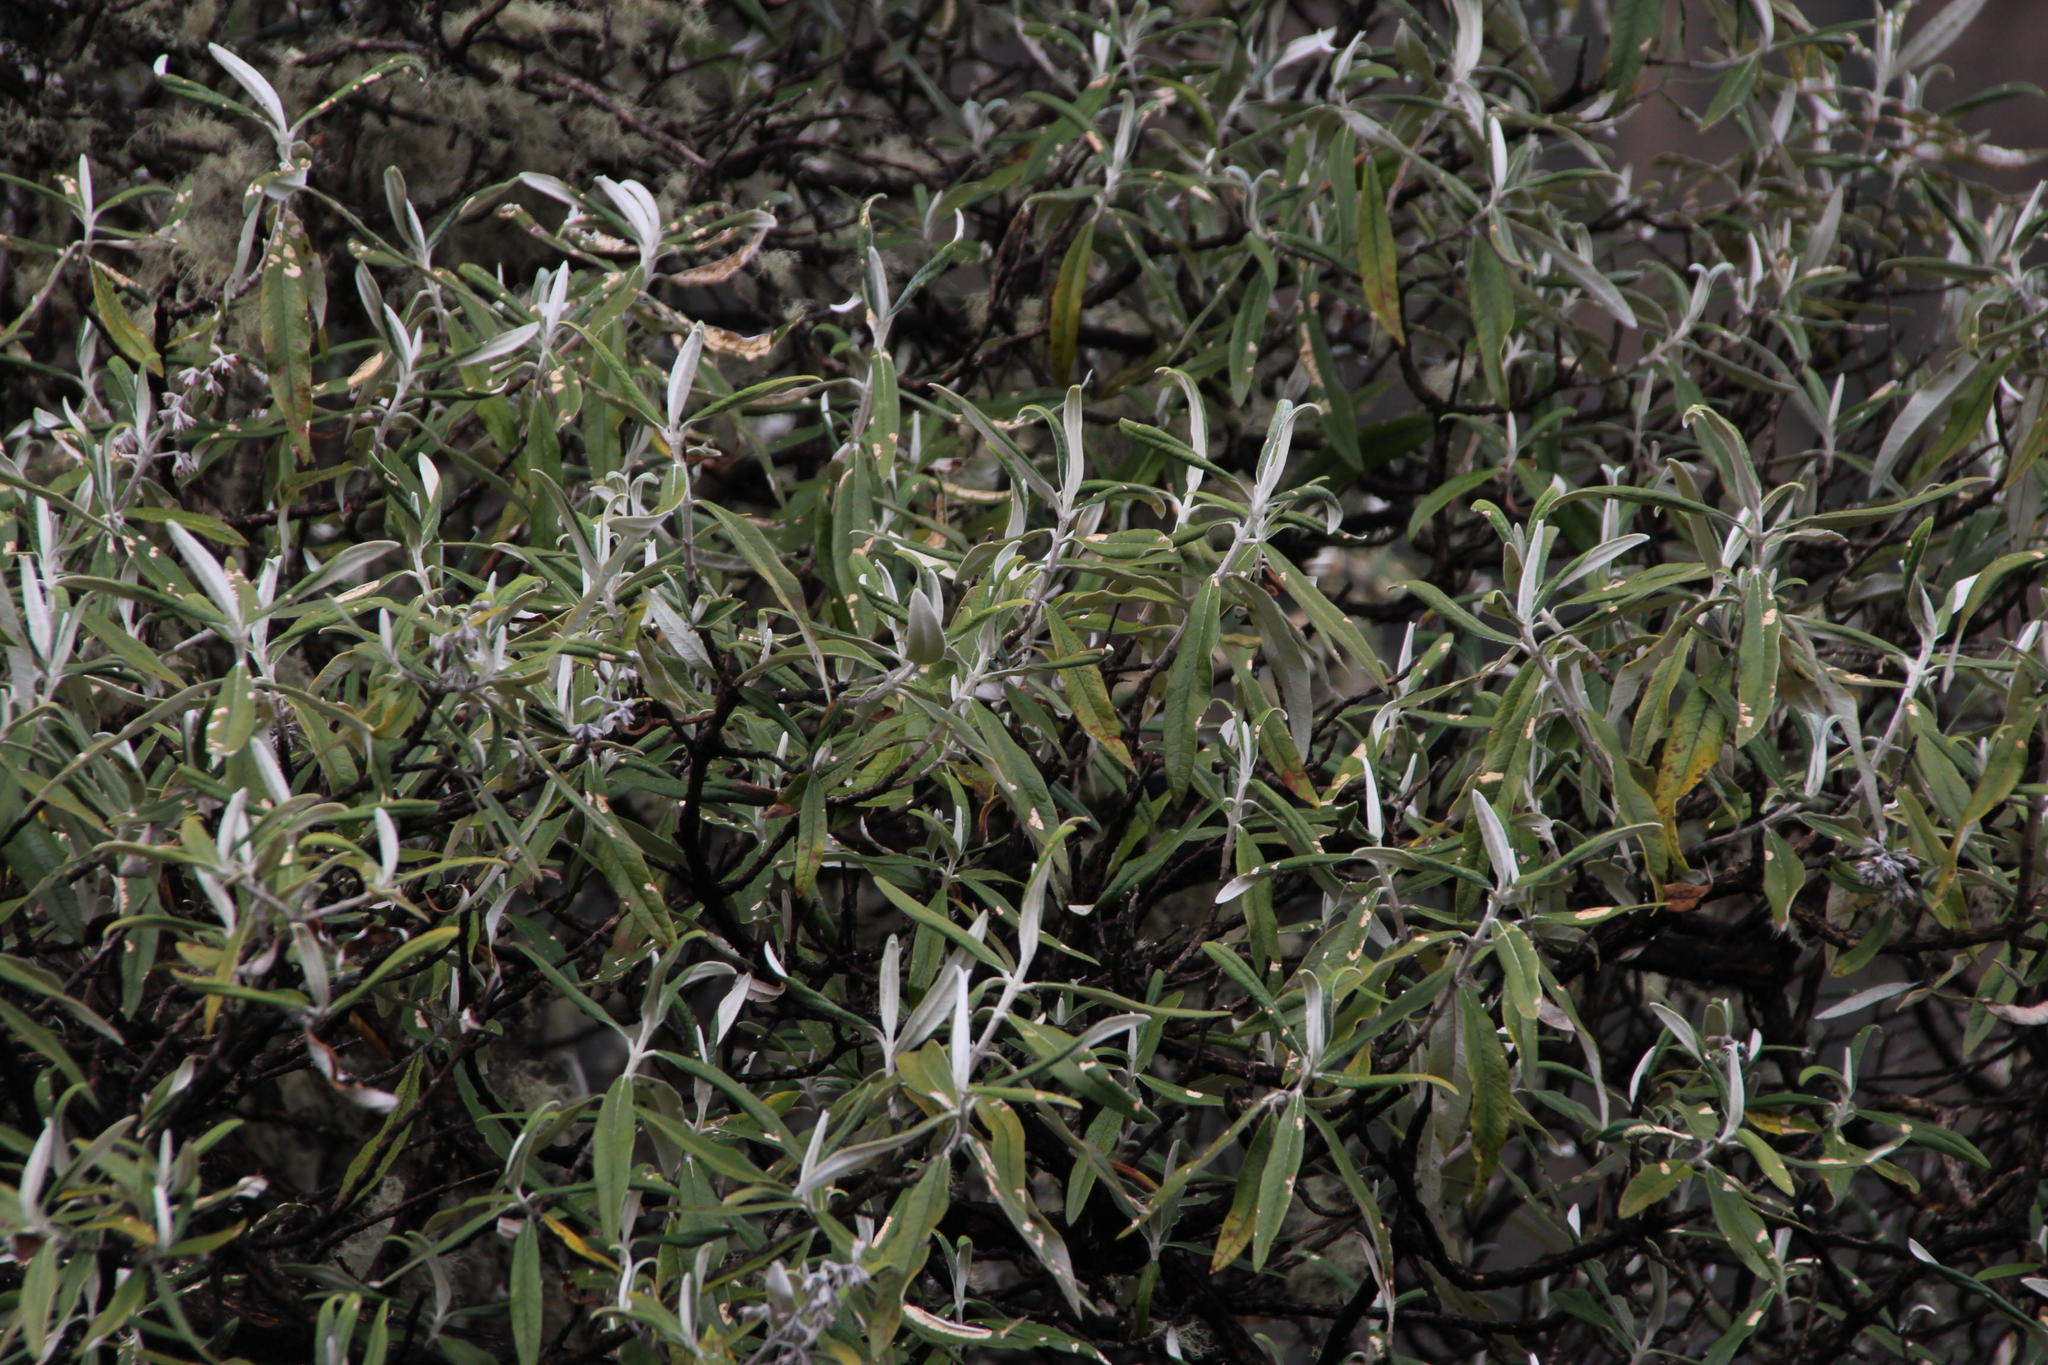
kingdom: Plantae
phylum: Tracheophyta
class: Magnoliopsida
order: Lamiales
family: Scrophulariaceae
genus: Buddleja
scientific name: Buddleja incana
